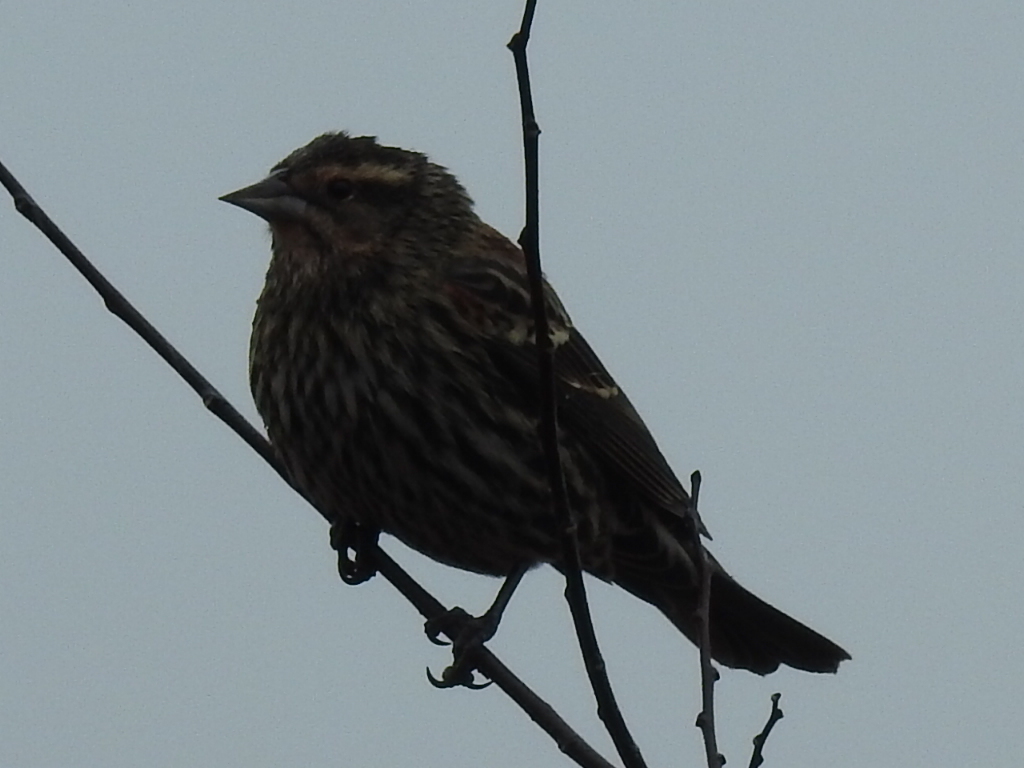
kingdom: Animalia
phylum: Chordata
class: Aves
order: Passeriformes
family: Icteridae
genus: Agelaius
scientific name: Agelaius phoeniceus
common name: Red-winged blackbird
